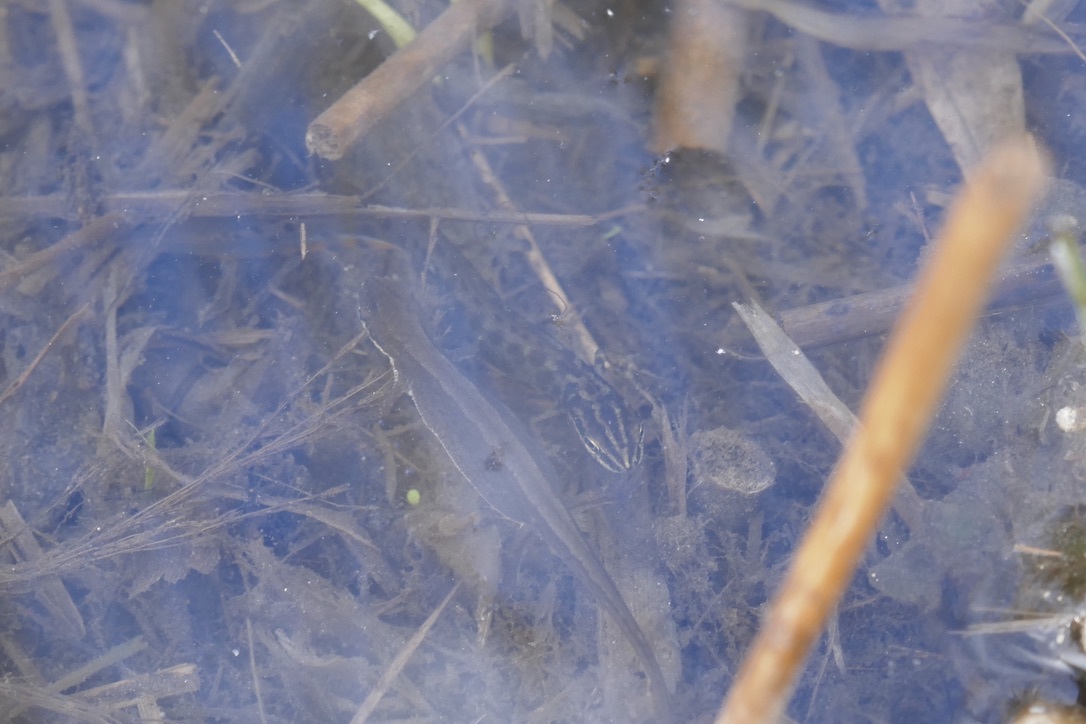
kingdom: Animalia
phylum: Chordata
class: Amphibia
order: Caudata
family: Salamandridae
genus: Lissotriton
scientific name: Lissotriton vulgaris
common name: Smooth newt
